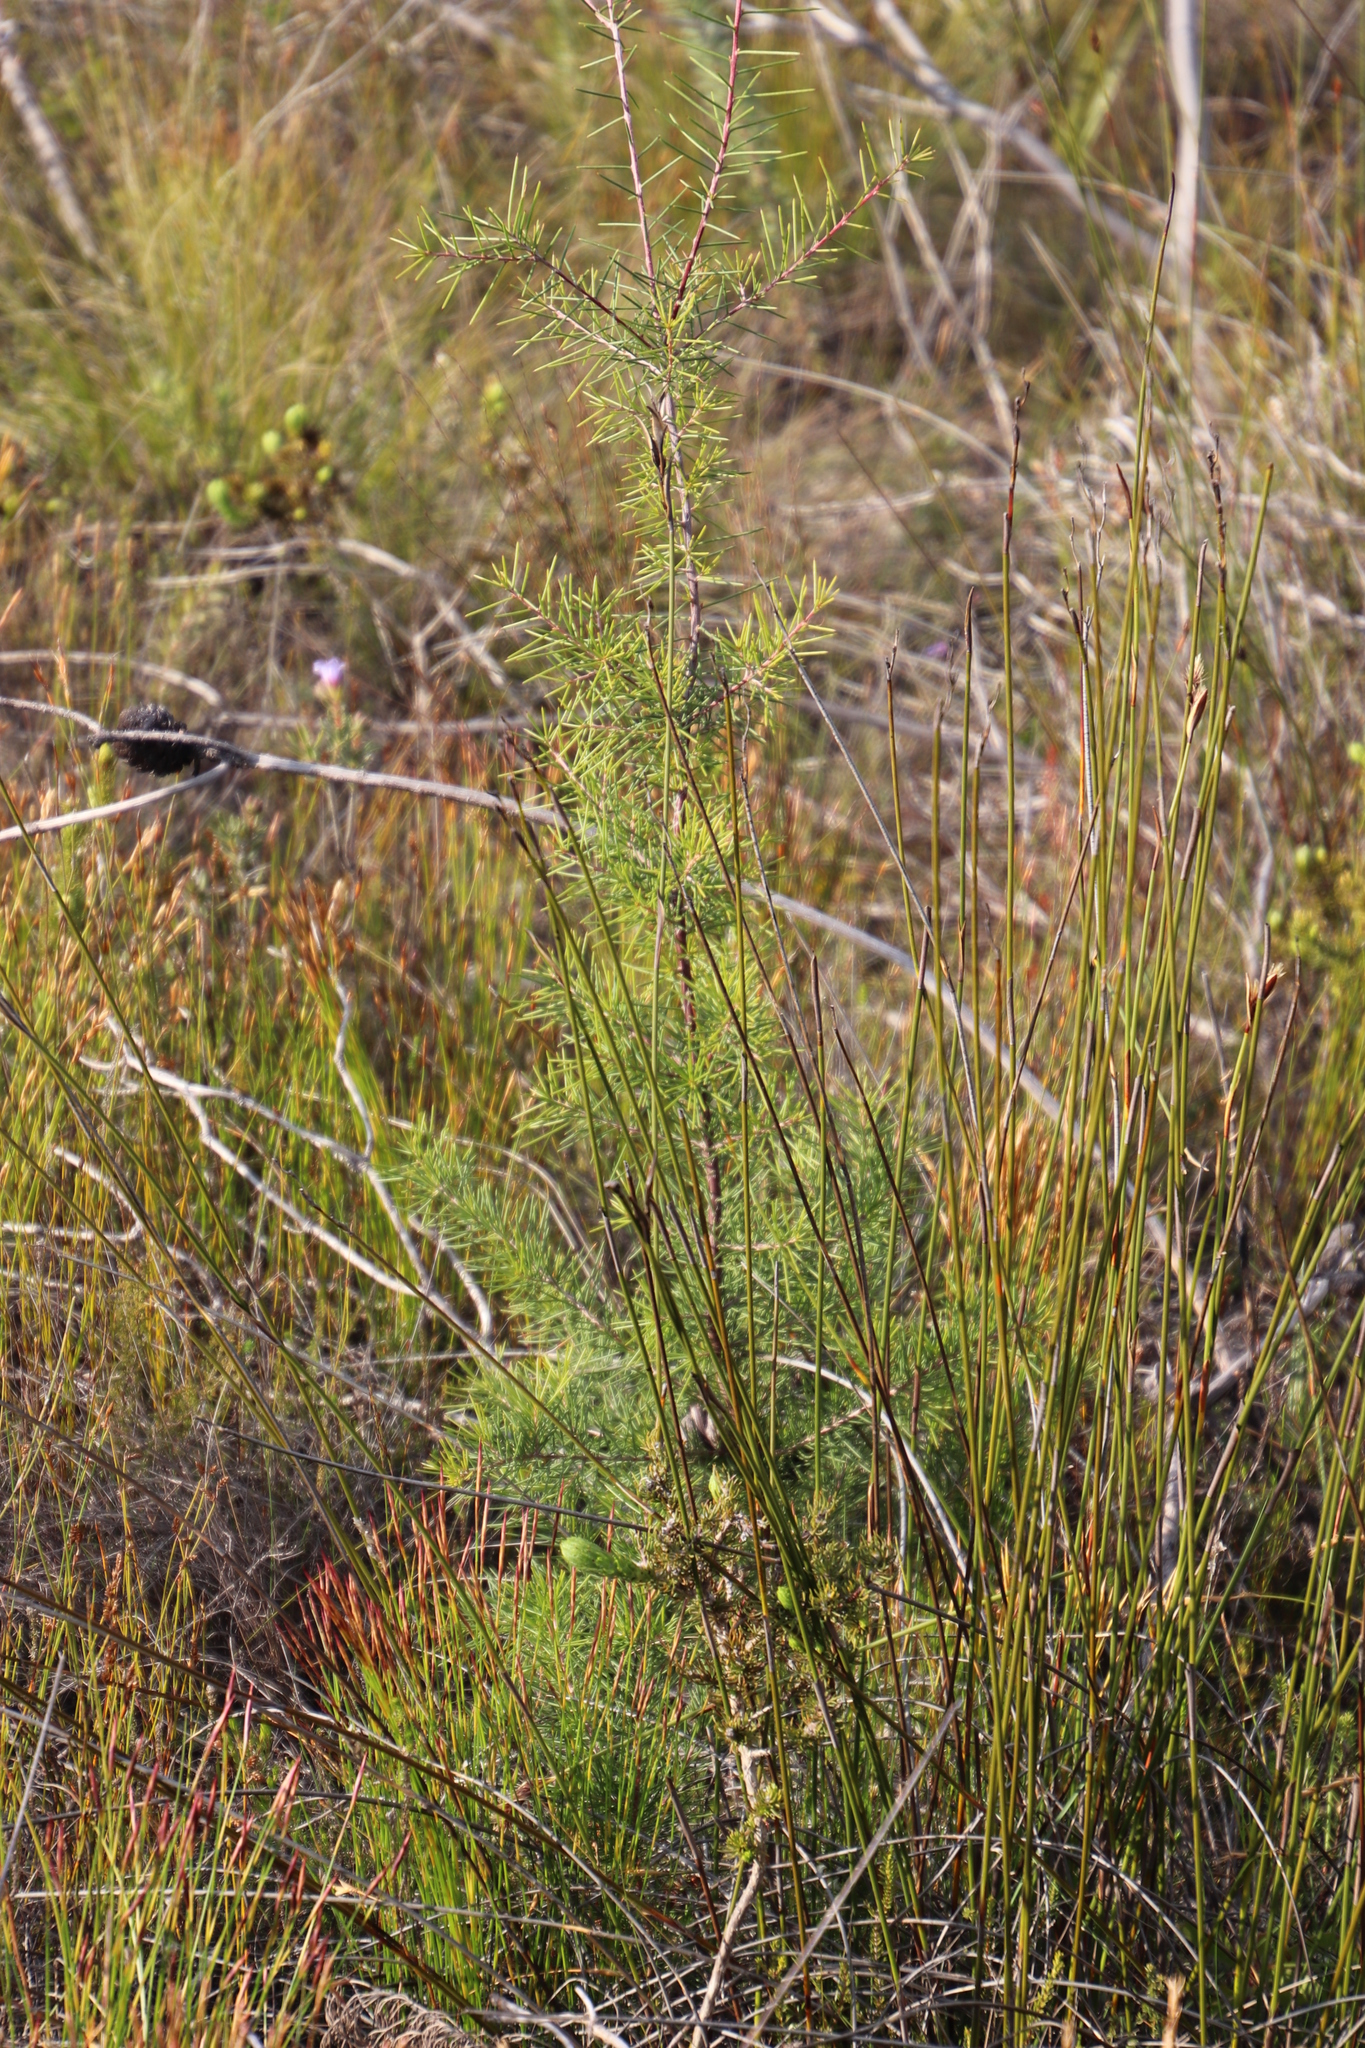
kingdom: Plantae
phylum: Tracheophyta
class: Magnoliopsida
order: Proteales
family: Proteaceae
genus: Hakea
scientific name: Hakea sericea
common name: Needle bush
